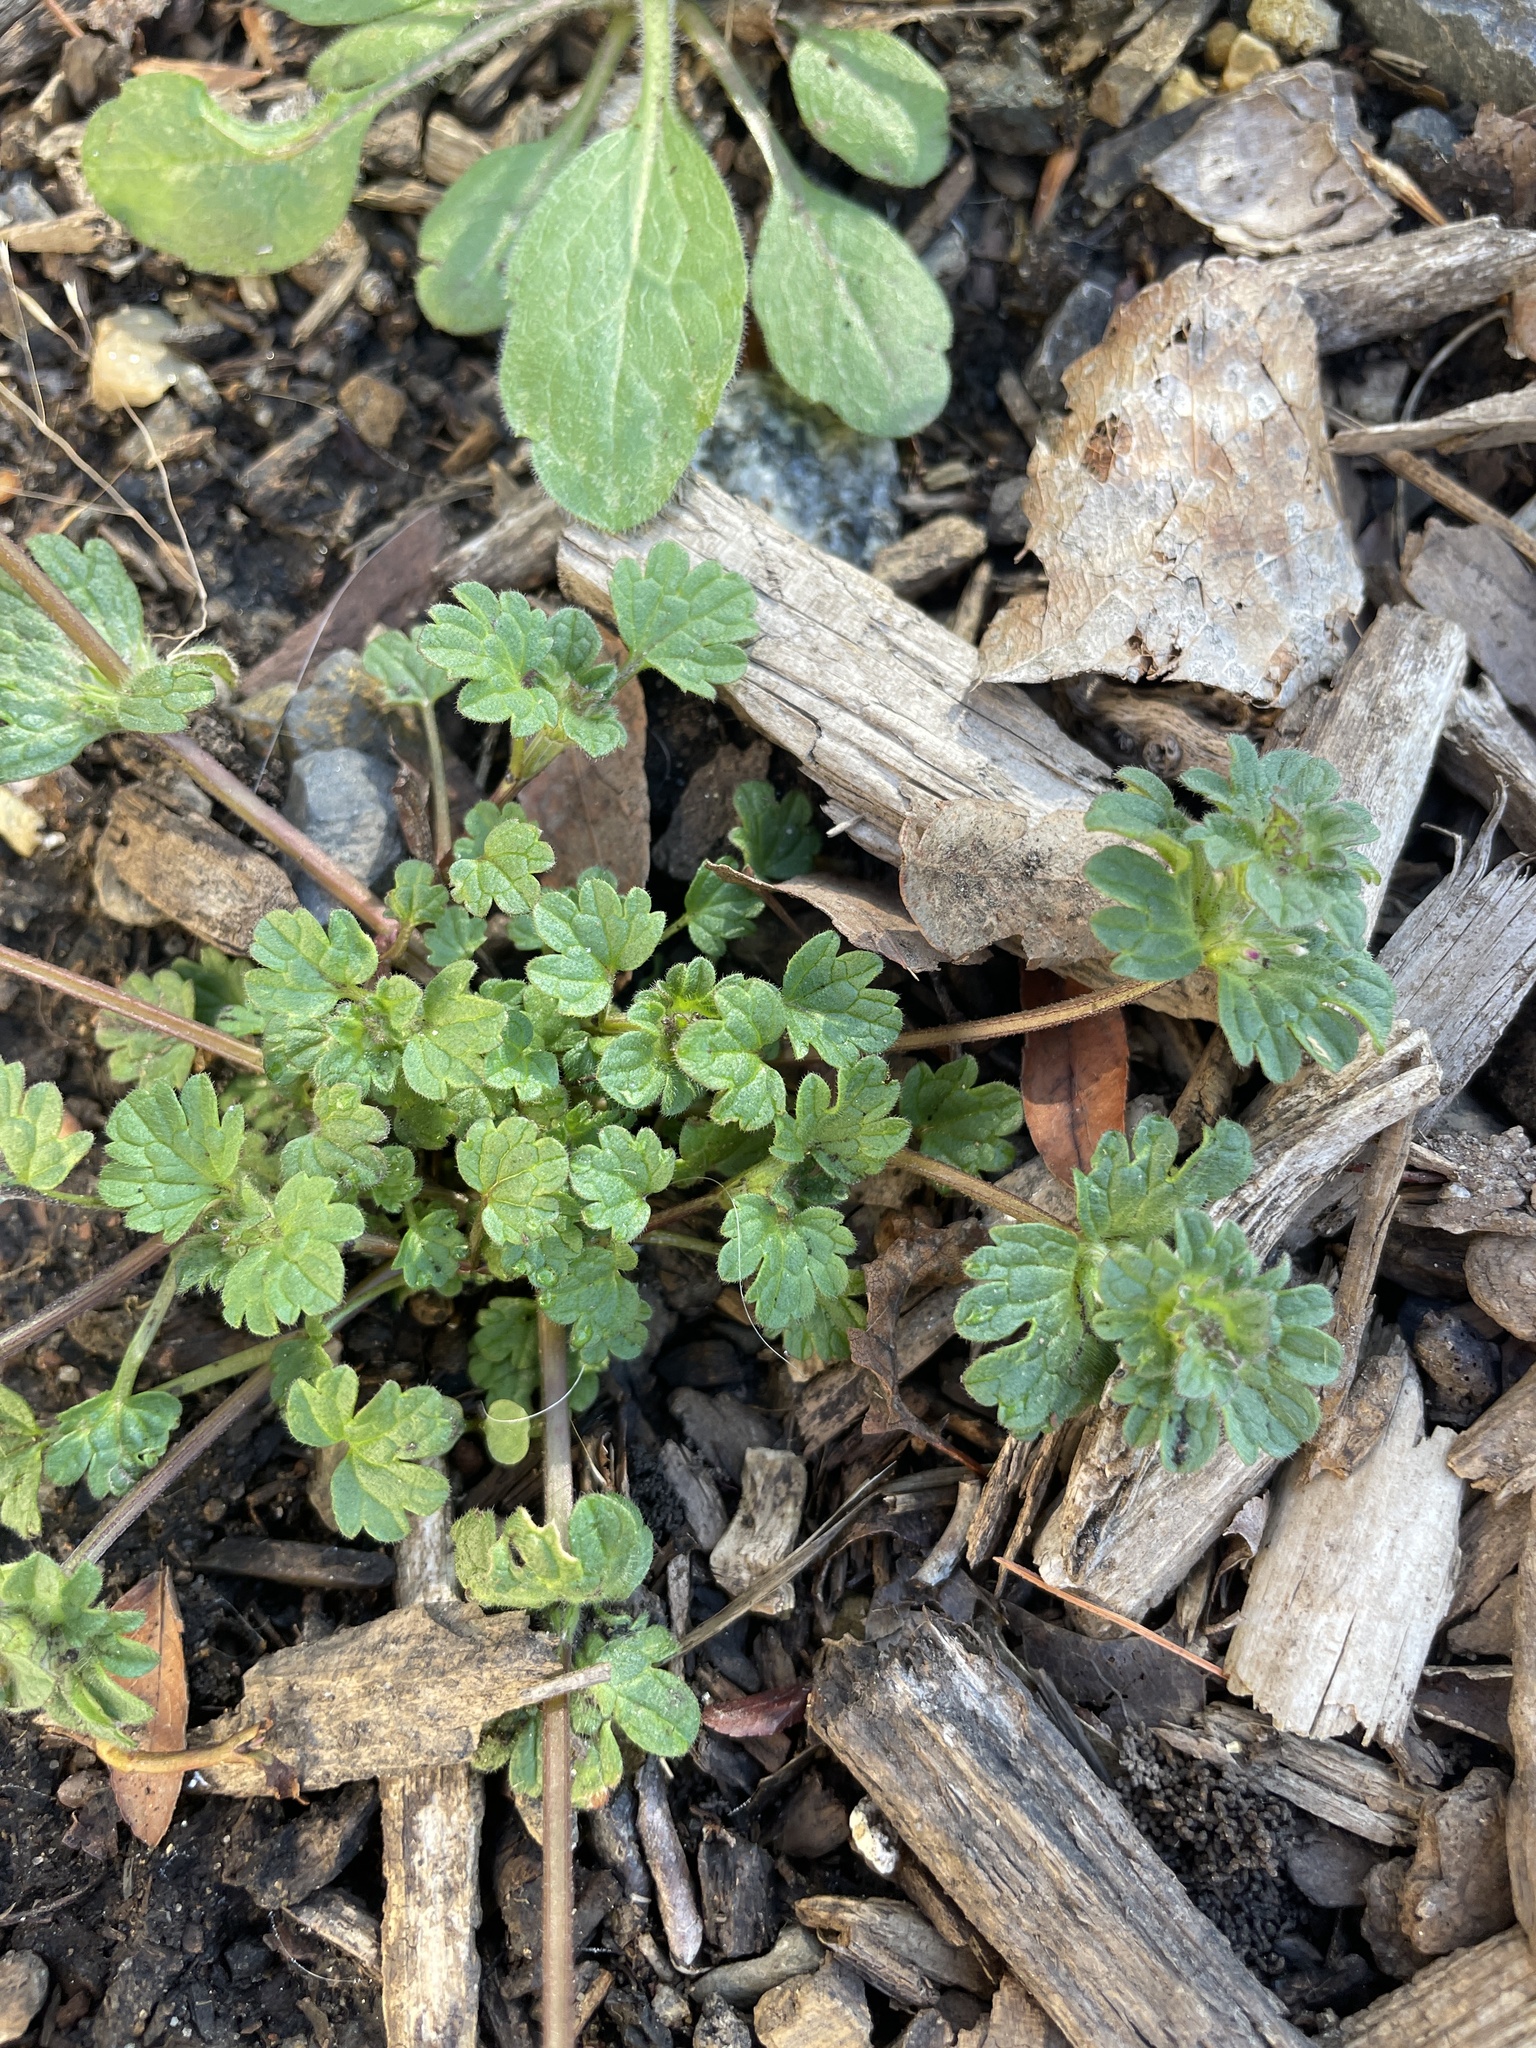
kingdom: Plantae
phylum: Tracheophyta
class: Magnoliopsida
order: Lamiales
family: Lamiaceae
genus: Lamium
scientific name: Lamium amplexicaule
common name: Henbit dead-nettle
